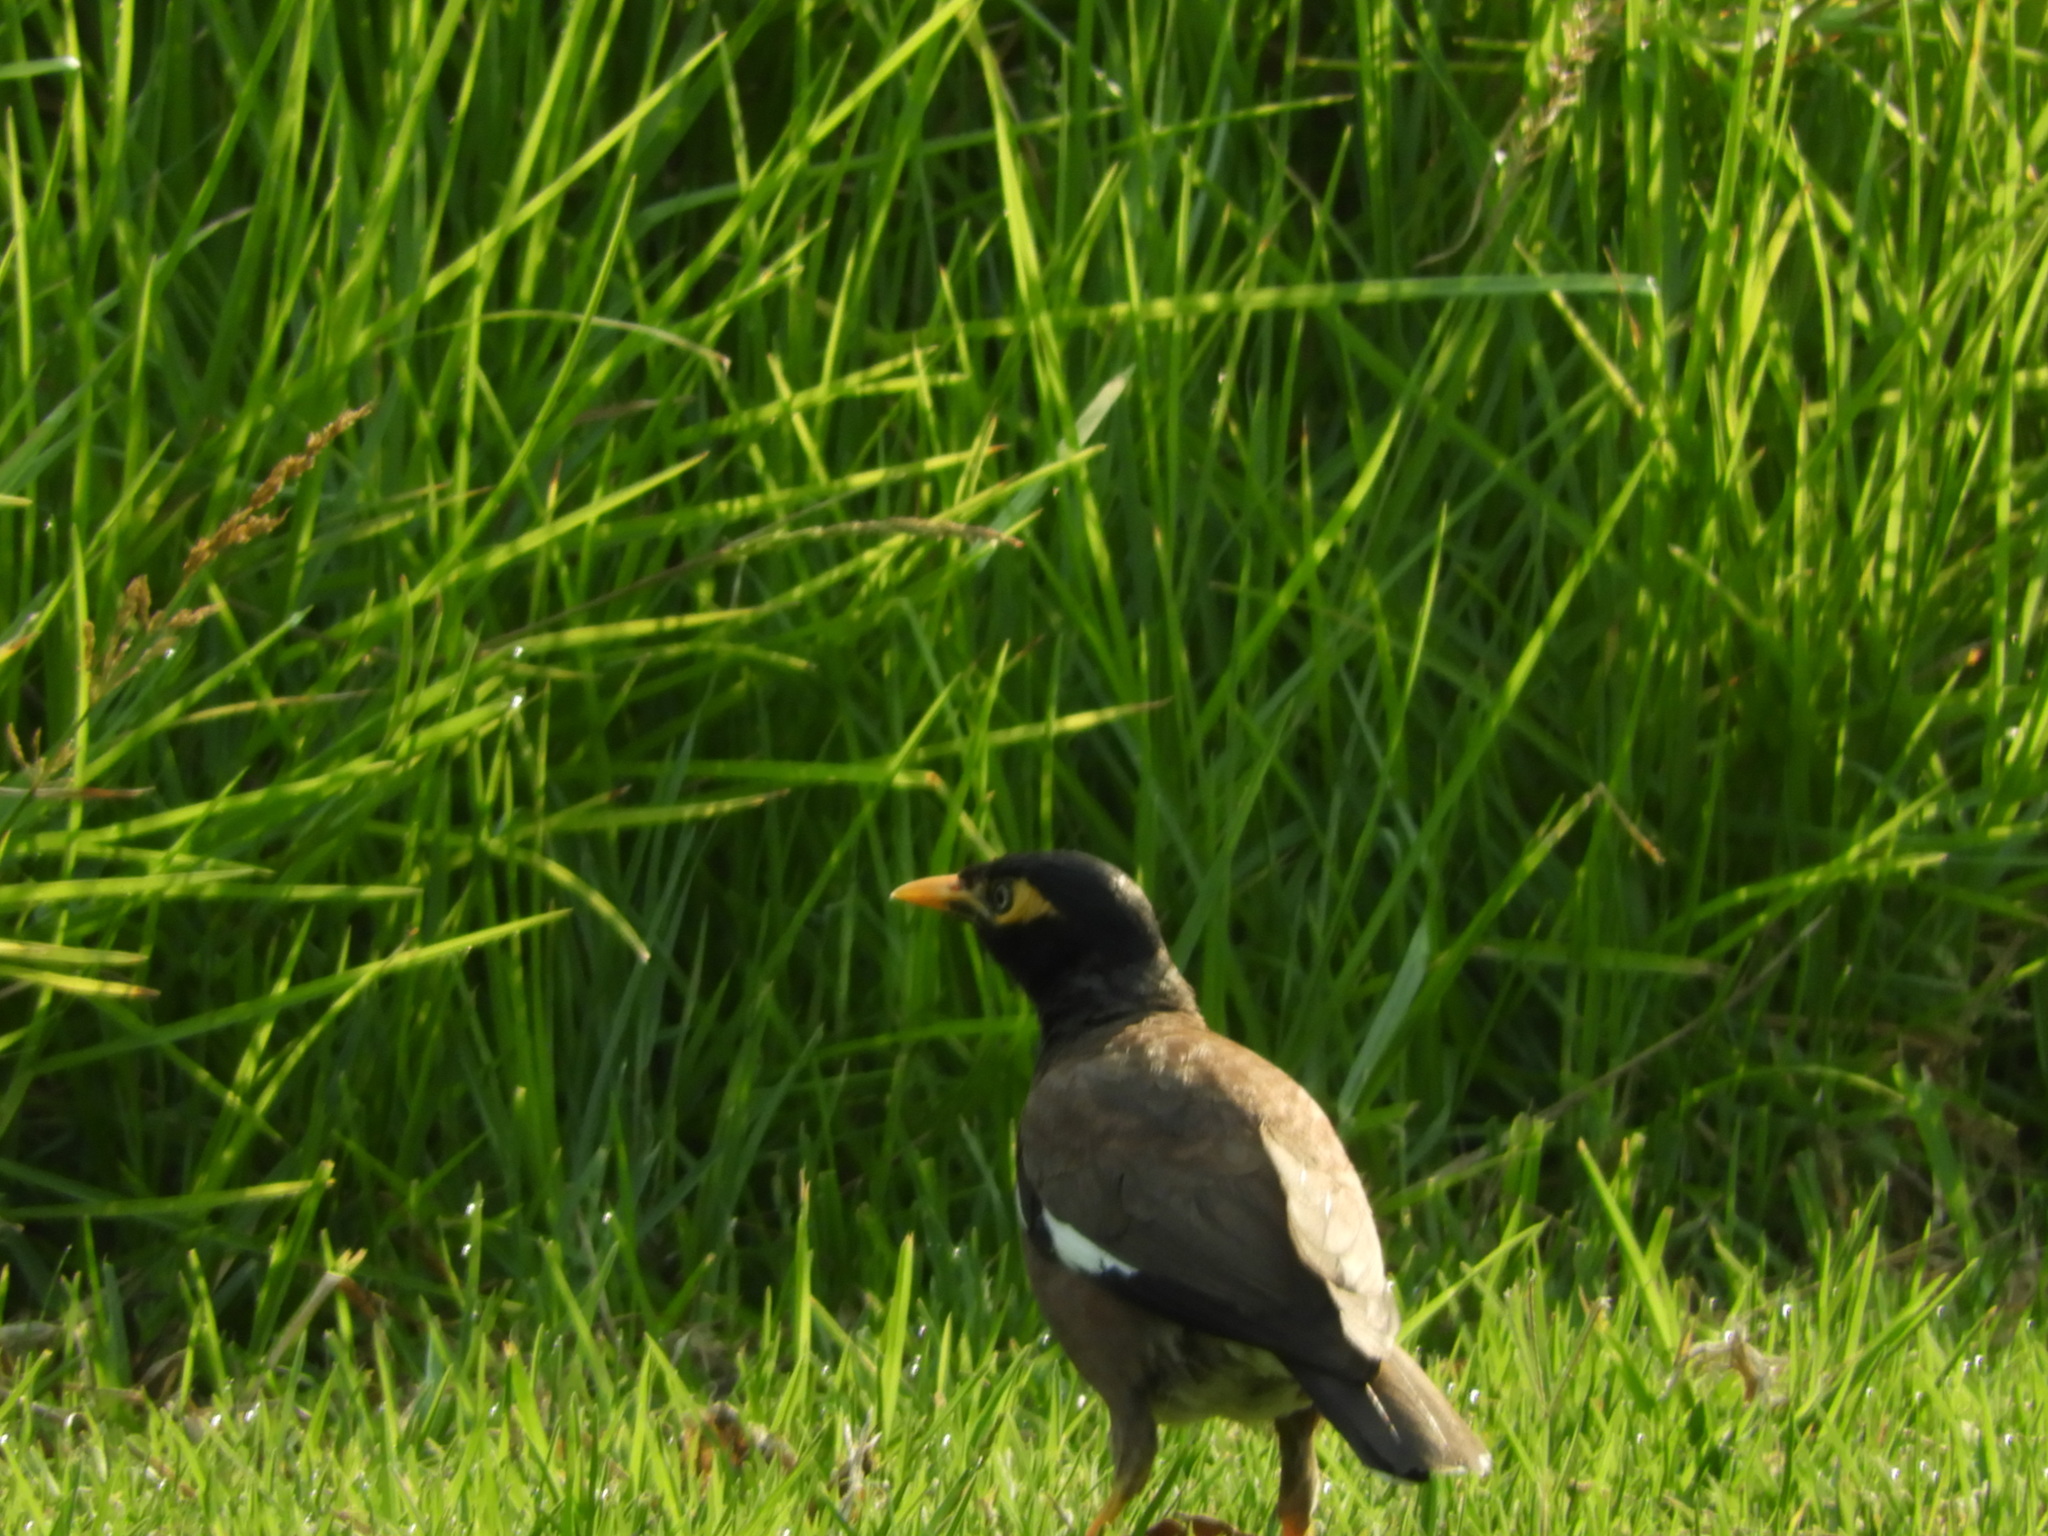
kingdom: Animalia
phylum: Chordata
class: Aves
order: Passeriformes
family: Sturnidae
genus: Acridotheres
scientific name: Acridotheres tristis
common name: Common myna
